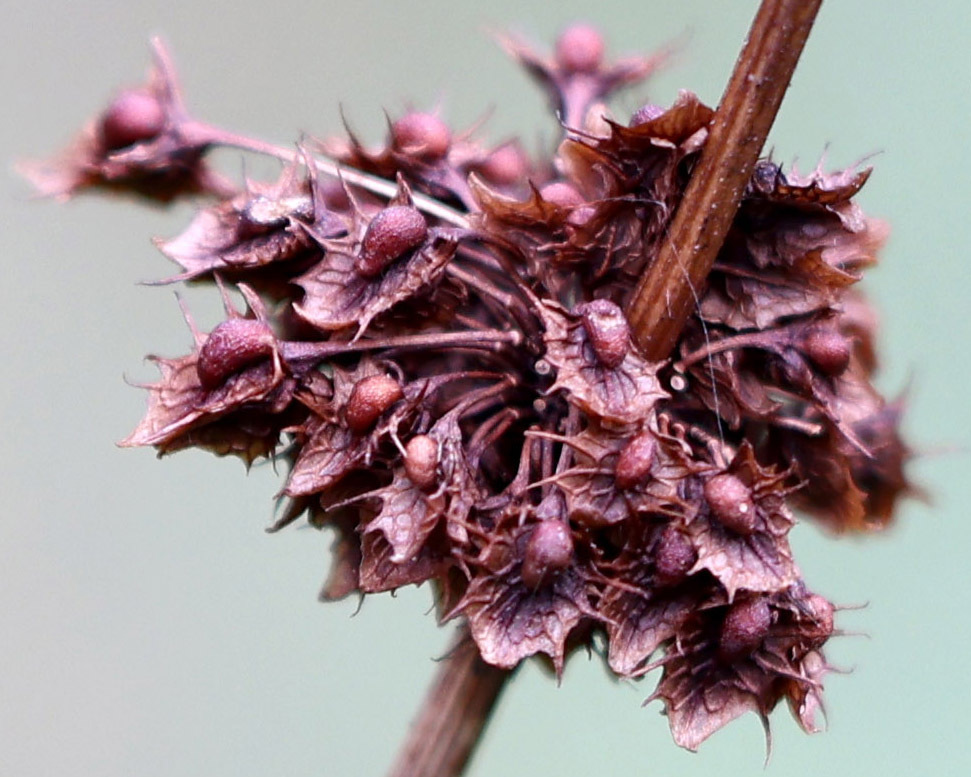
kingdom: Plantae
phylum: Tracheophyta
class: Magnoliopsida
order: Caryophyllales
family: Polygonaceae
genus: Rumex
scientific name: Rumex obtusifolius
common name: Bitter dock
